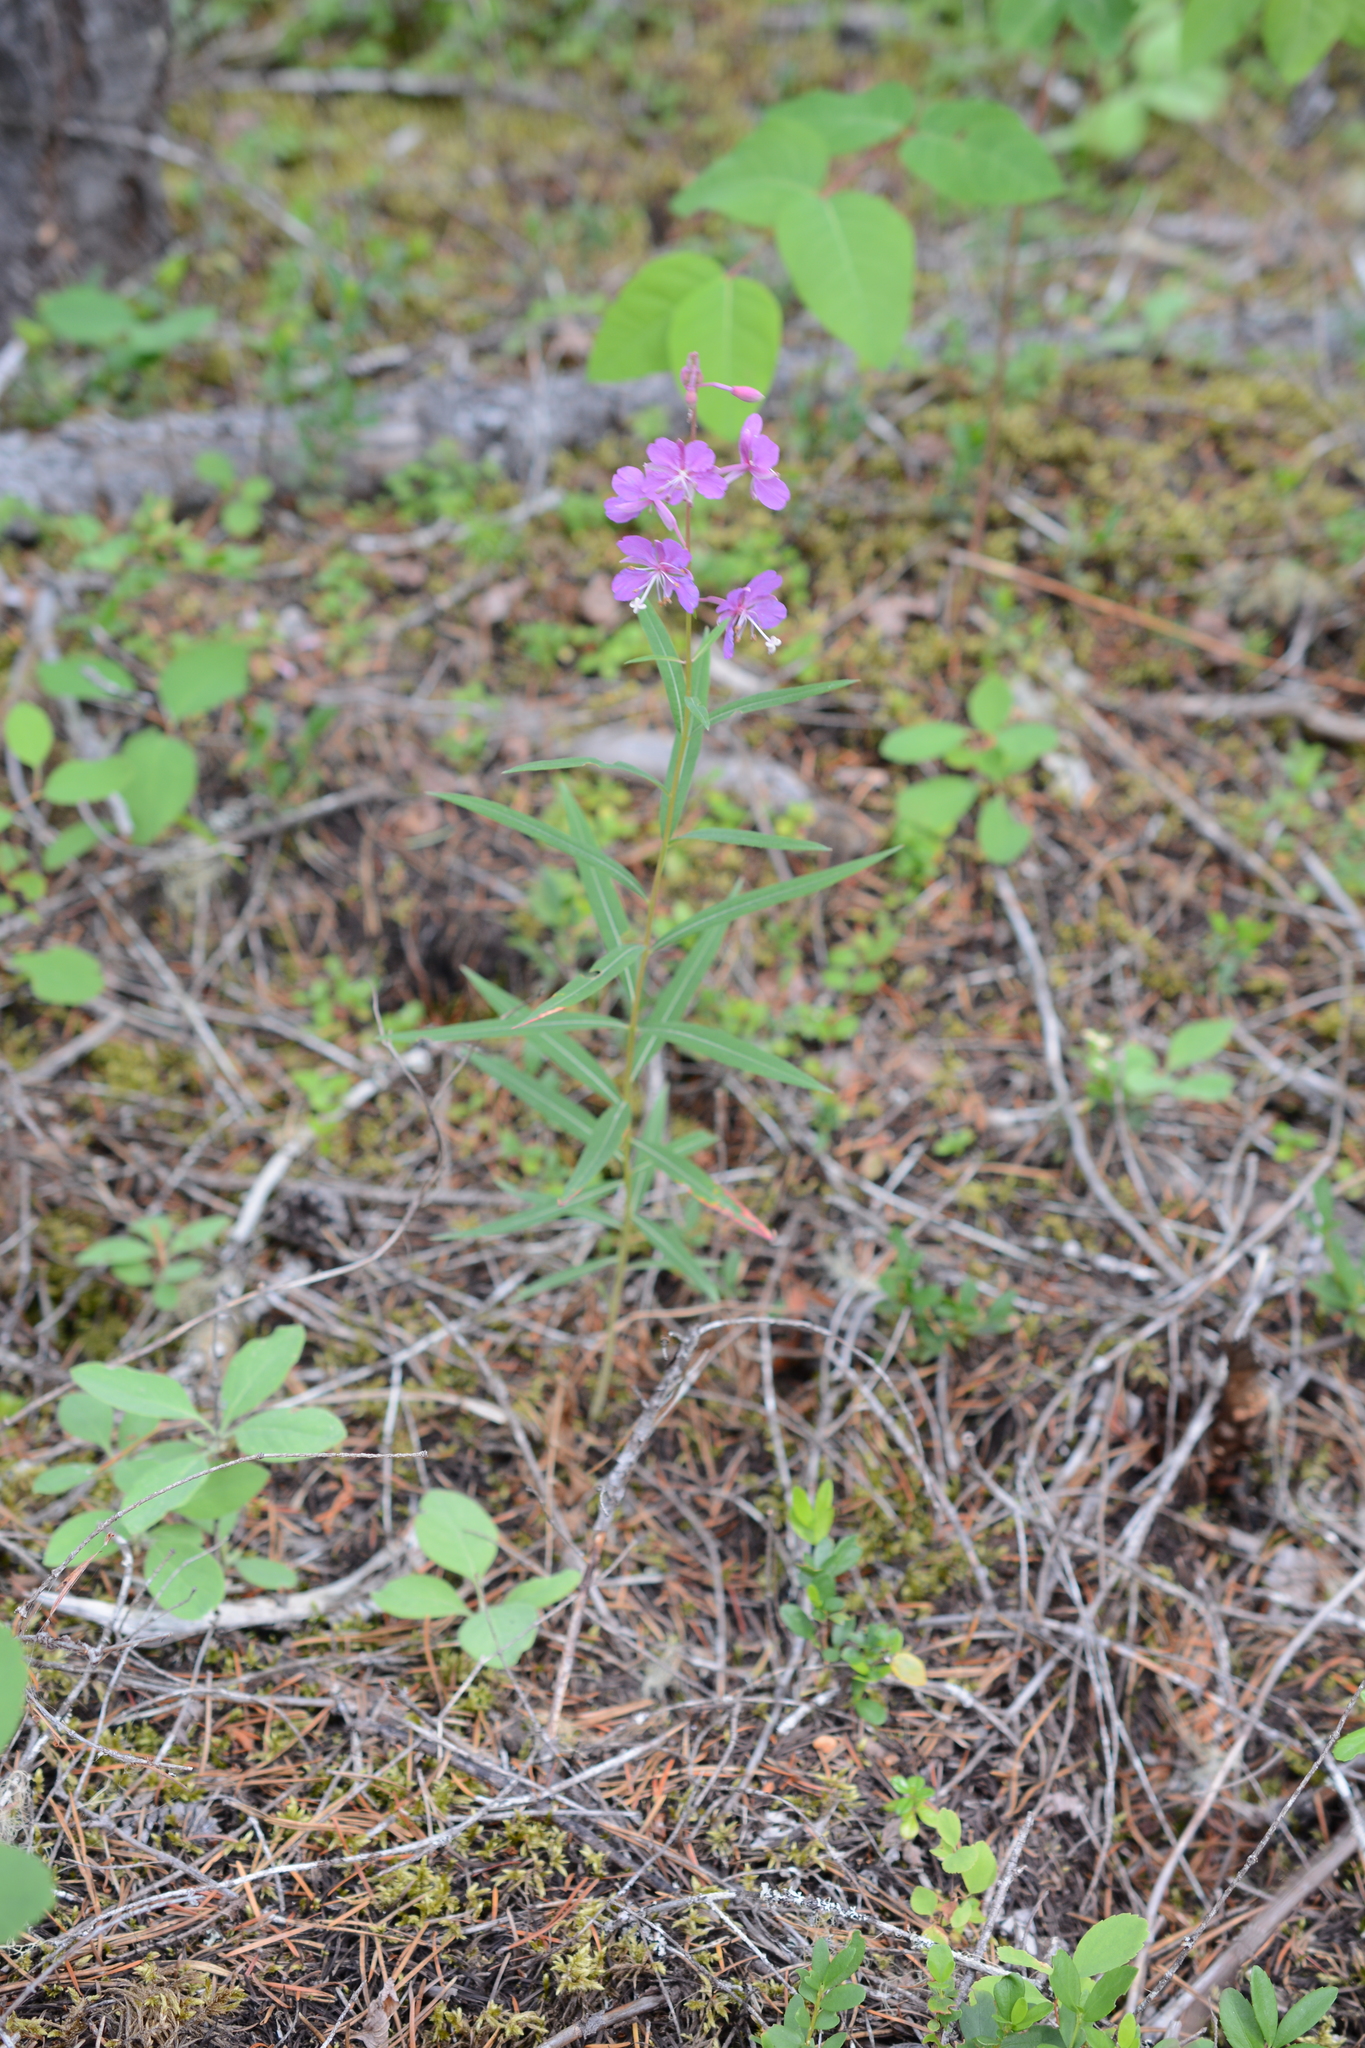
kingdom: Plantae
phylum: Tracheophyta
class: Magnoliopsida
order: Myrtales
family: Onagraceae
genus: Chamaenerion
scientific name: Chamaenerion angustifolium
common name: Fireweed
